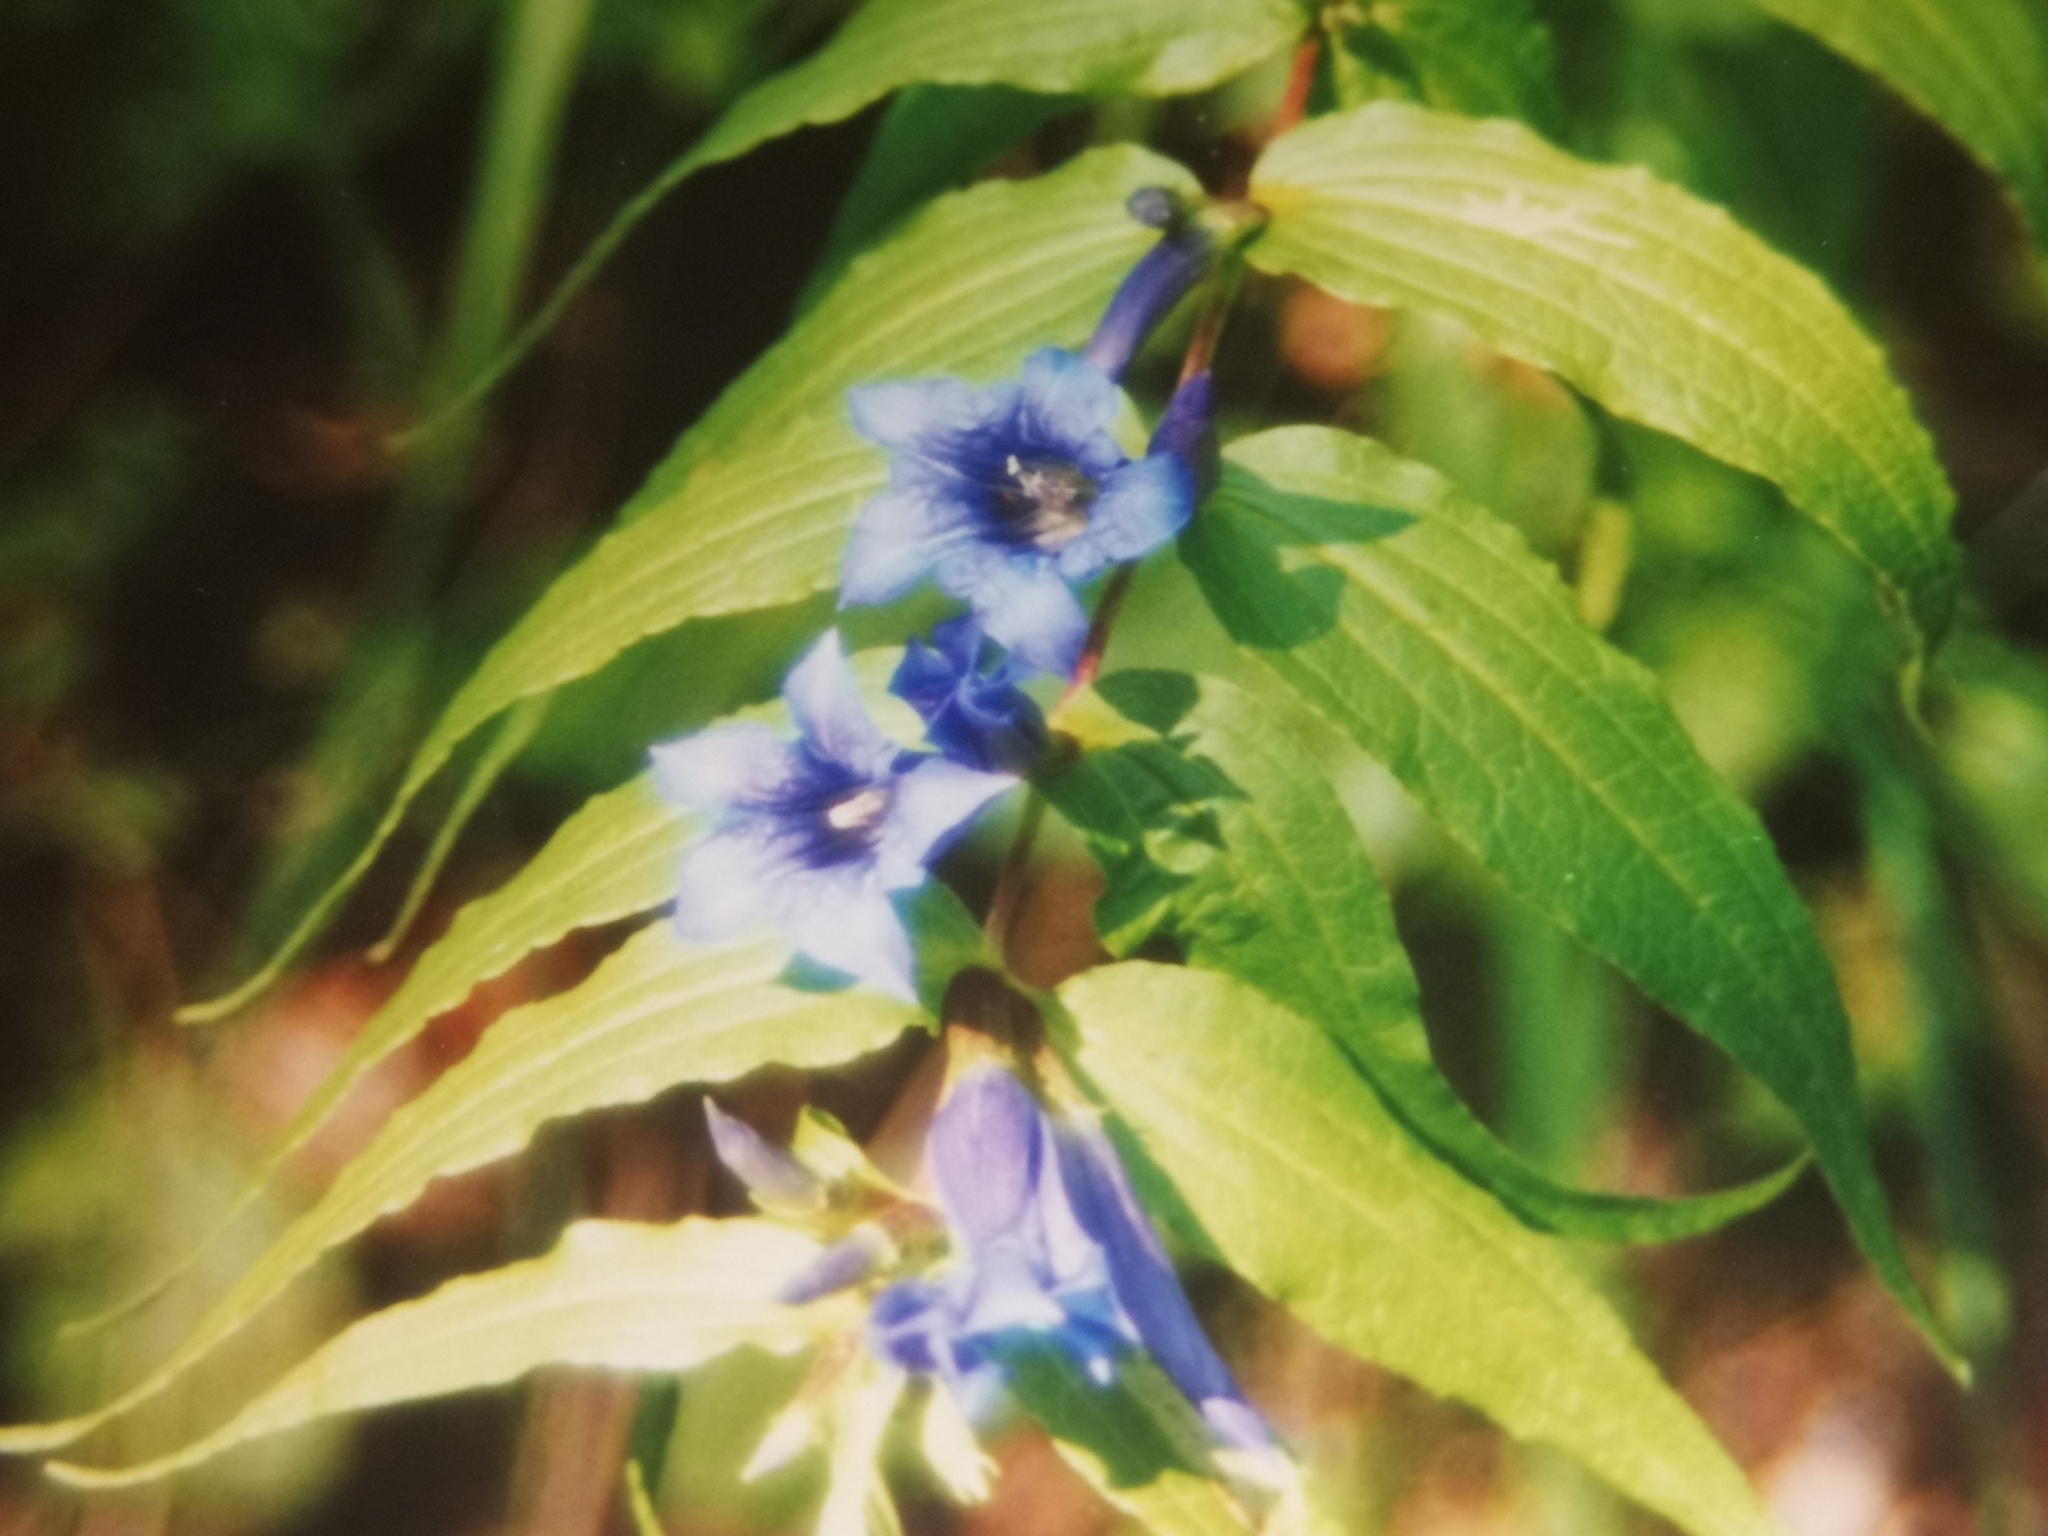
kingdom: Plantae
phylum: Tracheophyta
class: Magnoliopsida
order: Gentianales
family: Gentianaceae
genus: Gentiana
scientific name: Gentiana asclepiadea
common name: Willow gentian
